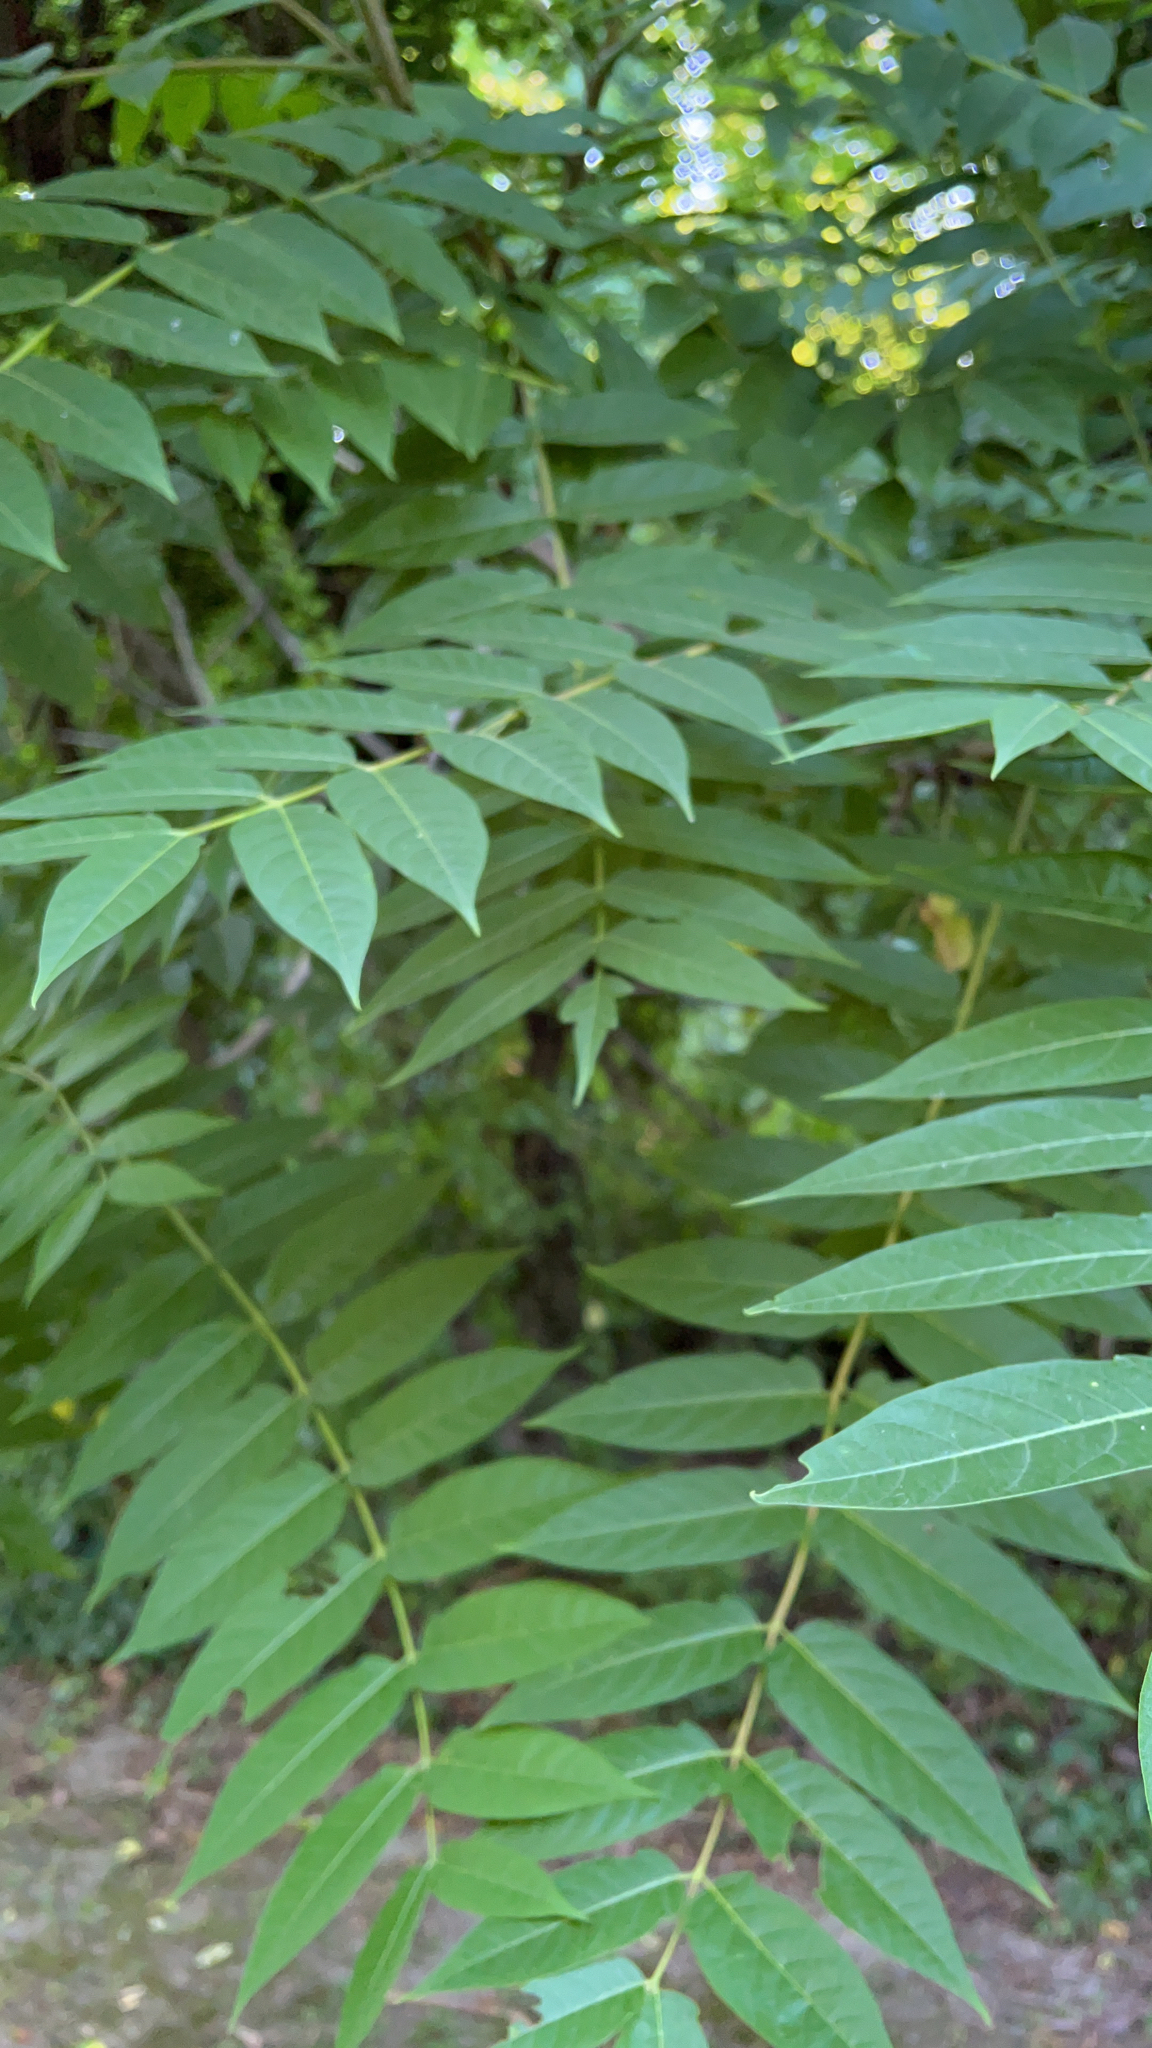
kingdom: Plantae
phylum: Tracheophyta
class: Magnoliopsida
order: Sapindales
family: Simaroubaceae
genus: Ailanthus
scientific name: Ailanthus altissima
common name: Tree-of-heaven
